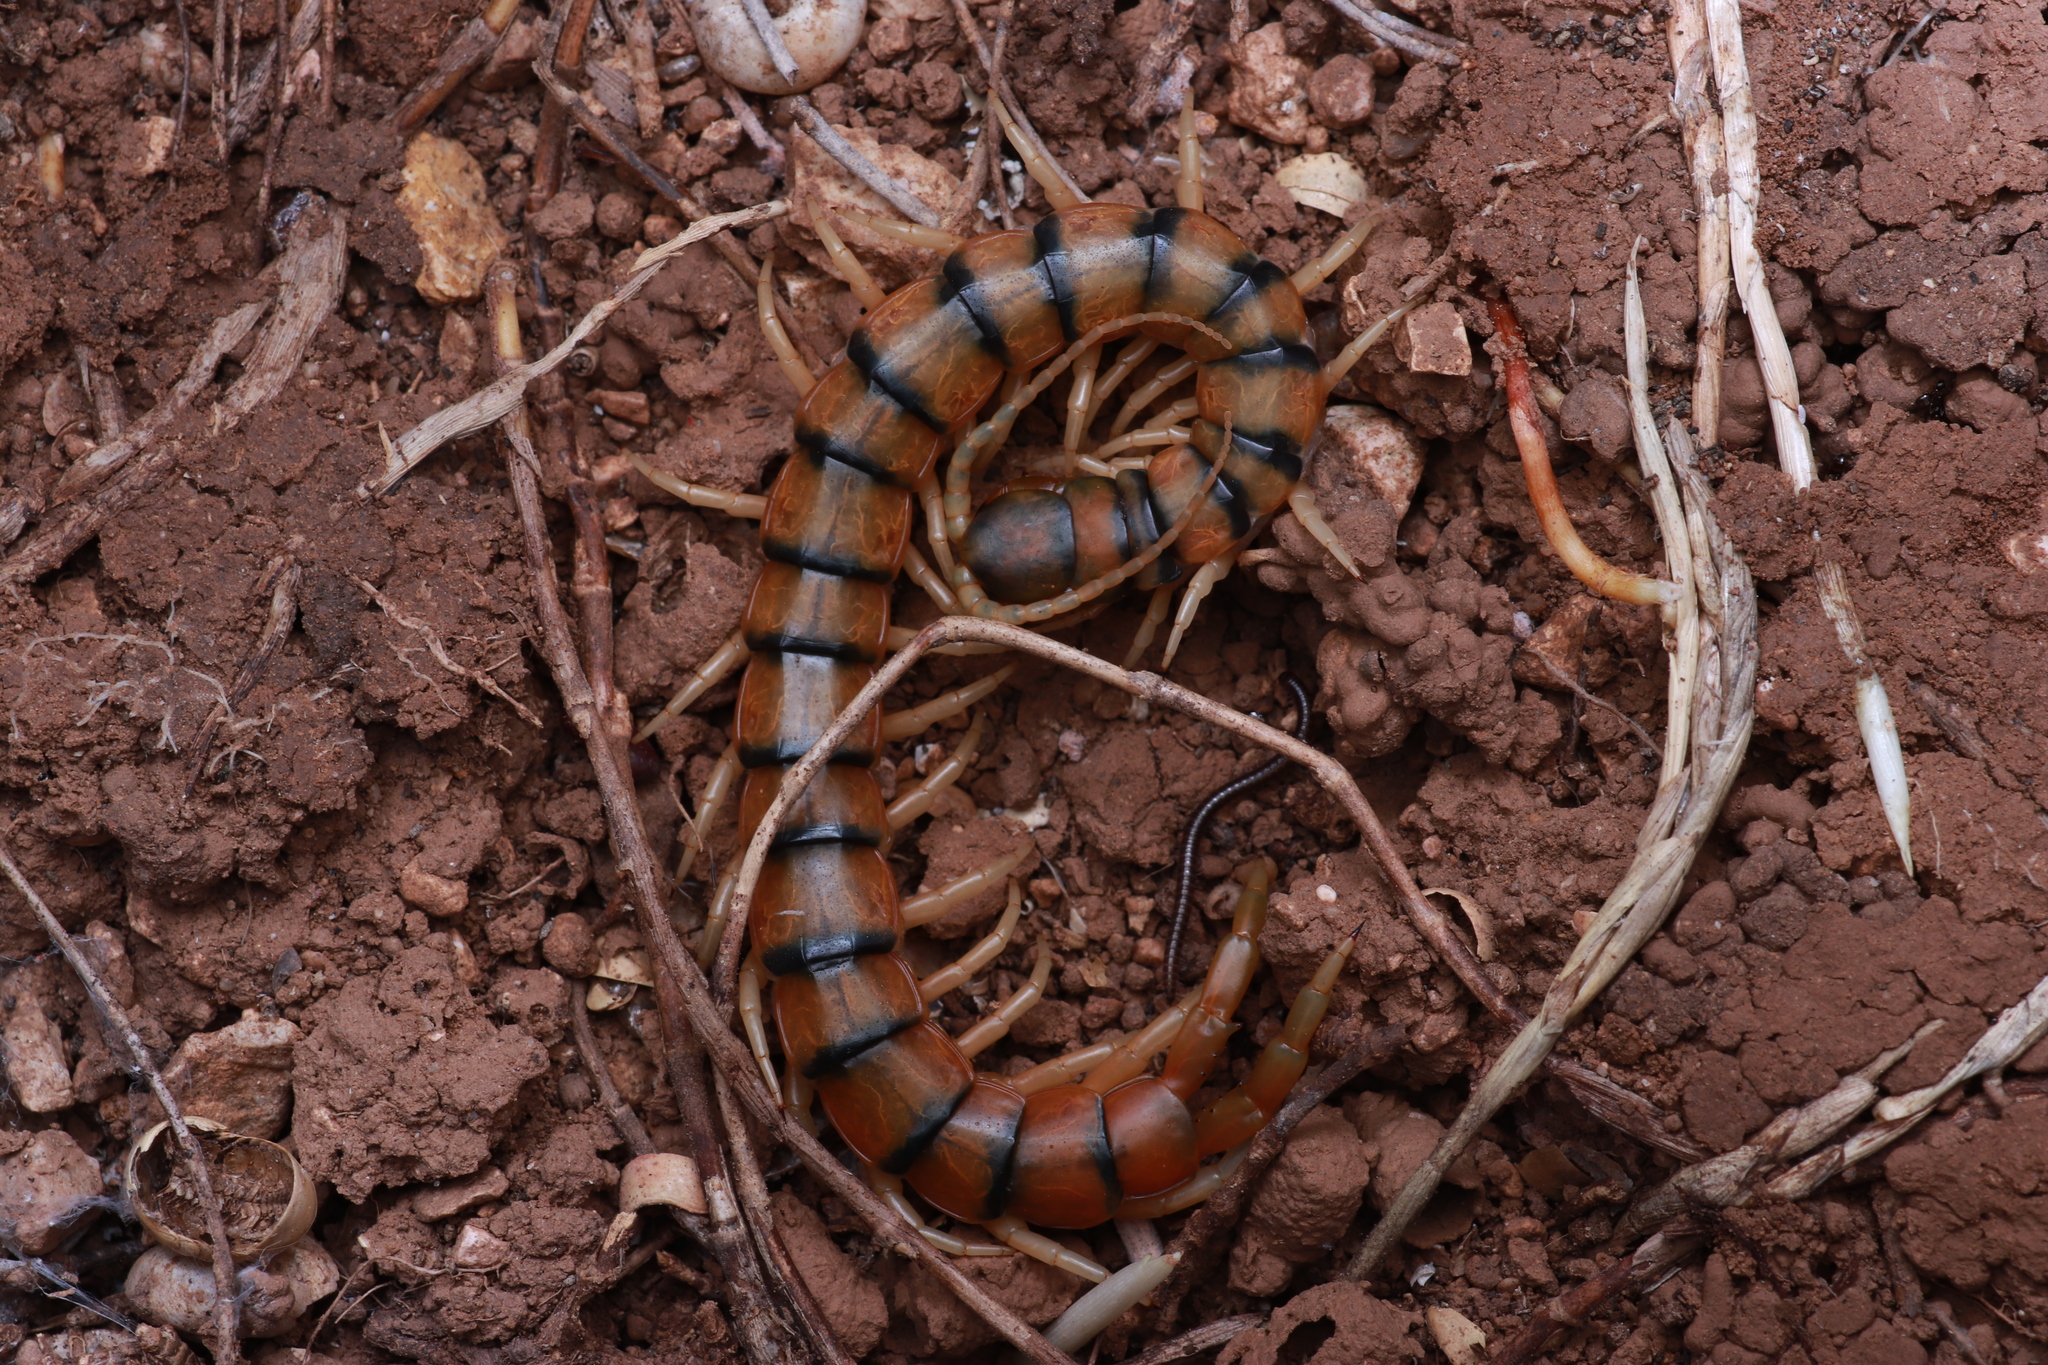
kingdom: Animalia
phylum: Arthropoda
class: Chilopoda
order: Scolopendromorpha
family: Scolopendridae
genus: Scolopendra
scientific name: Scolopendra cingulata
